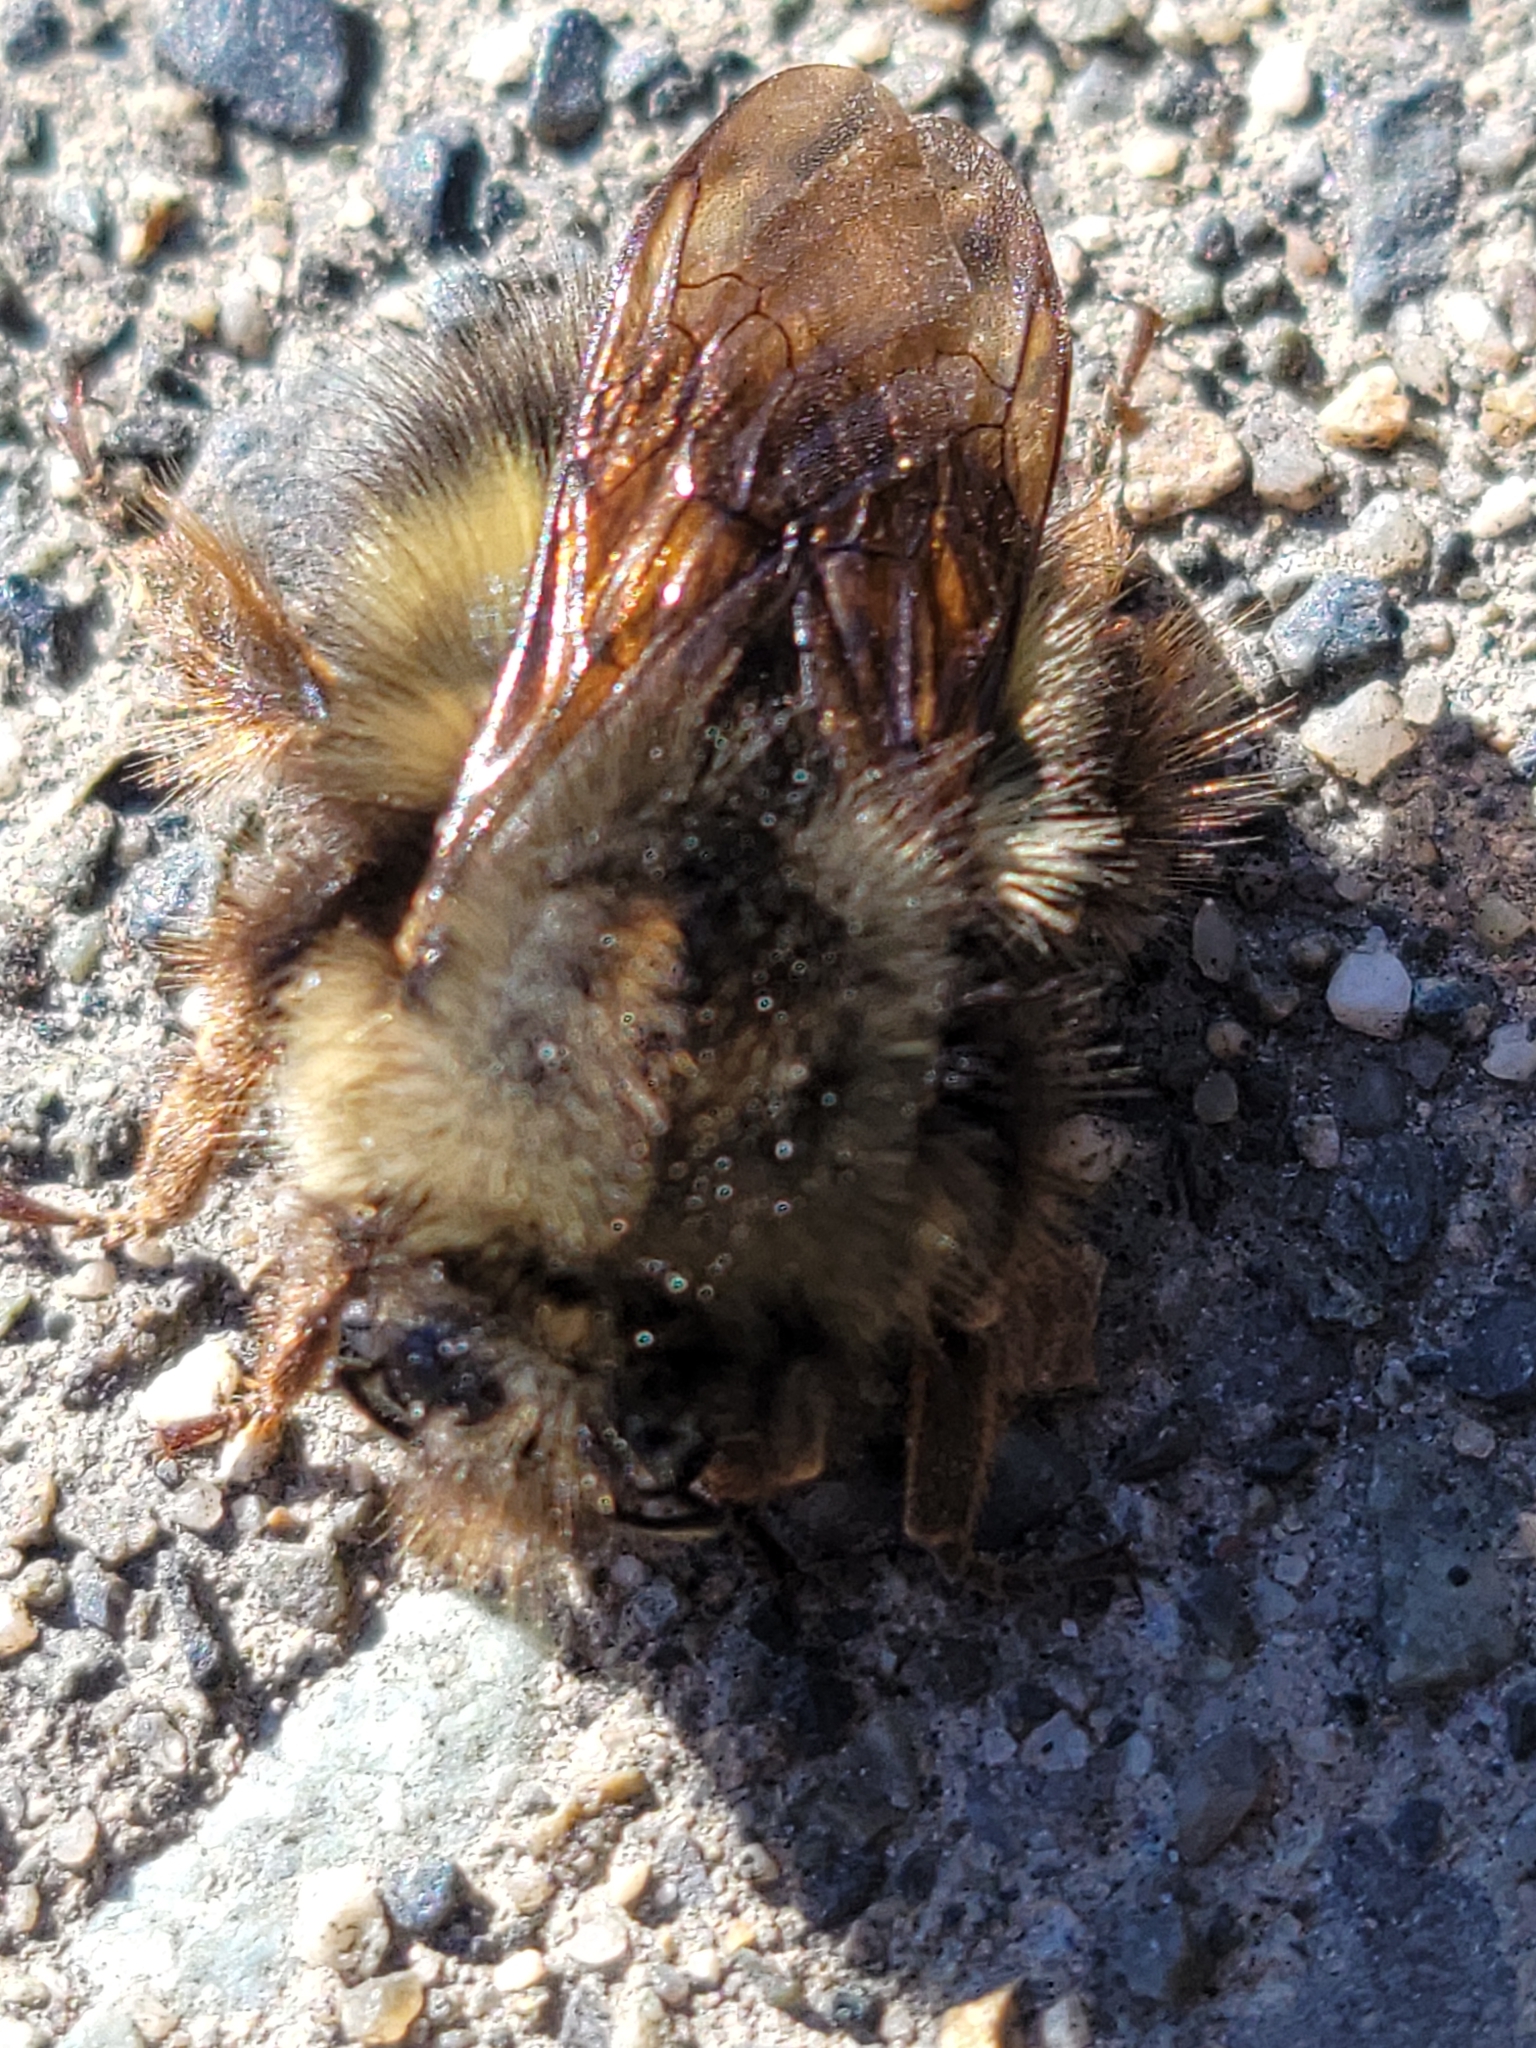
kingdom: Animalia
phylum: Arthropoda
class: Insecta
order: Hymenoptera
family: Apidae
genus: Bombus
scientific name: Bombus sitkensis
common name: Sitka bumble bee
